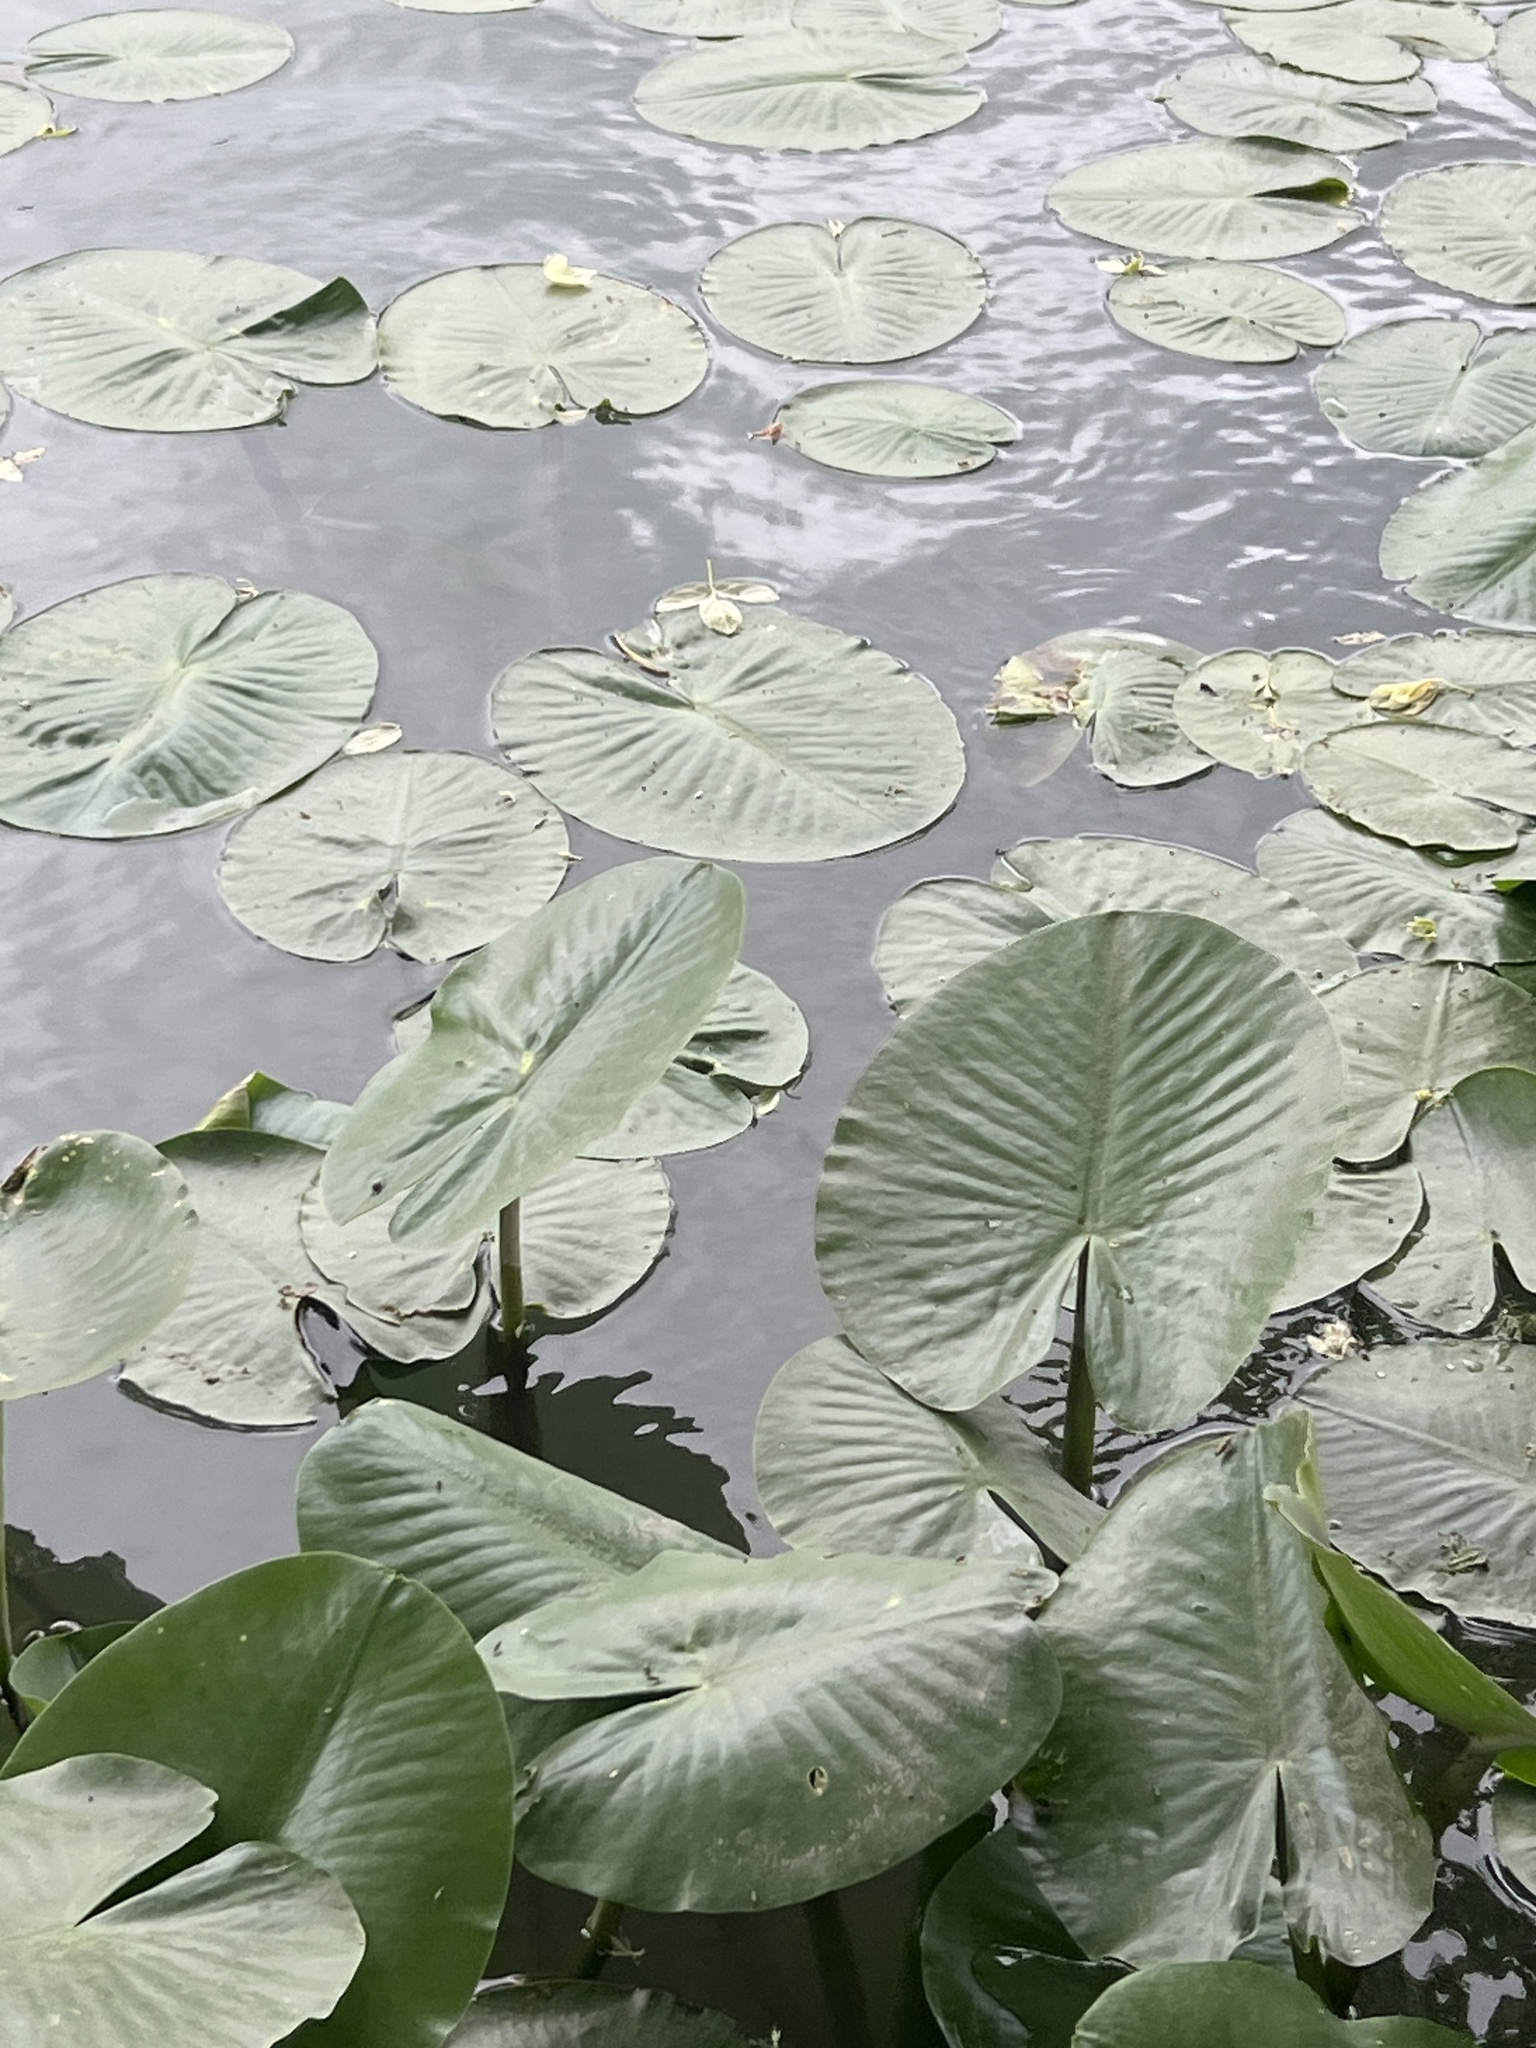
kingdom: Plantae
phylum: Tracheophyta
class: Magnoliopsida
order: Nymphaeales
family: Nymphaeaceae
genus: Nuphar
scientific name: Nuphar advena
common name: Spatter-dock
